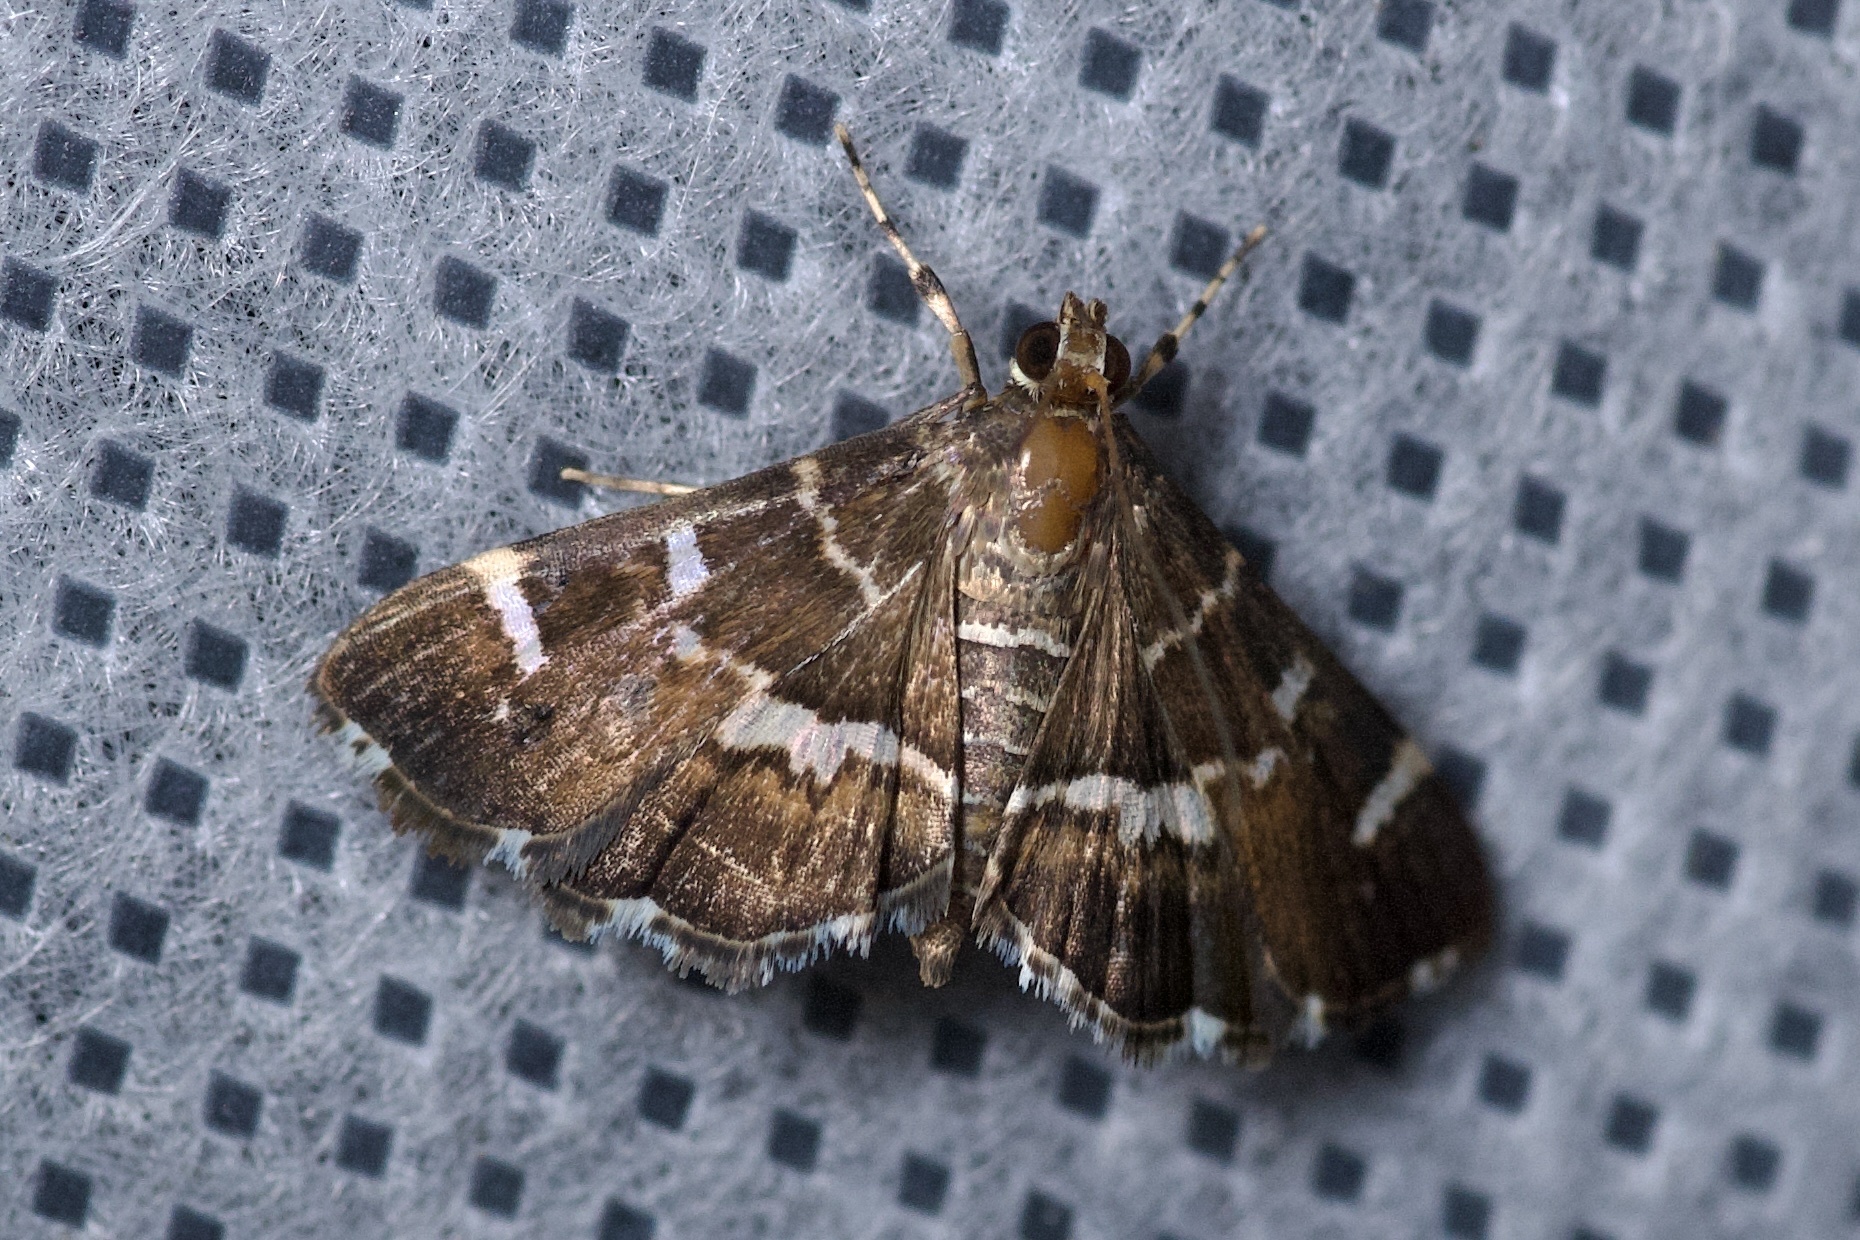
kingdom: Animalia
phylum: Arthropoda
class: Insecta
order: Lepidoptera
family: Crambidae
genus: Hymenia
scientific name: Hymenia perspectalis
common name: Spotted beet webworm
